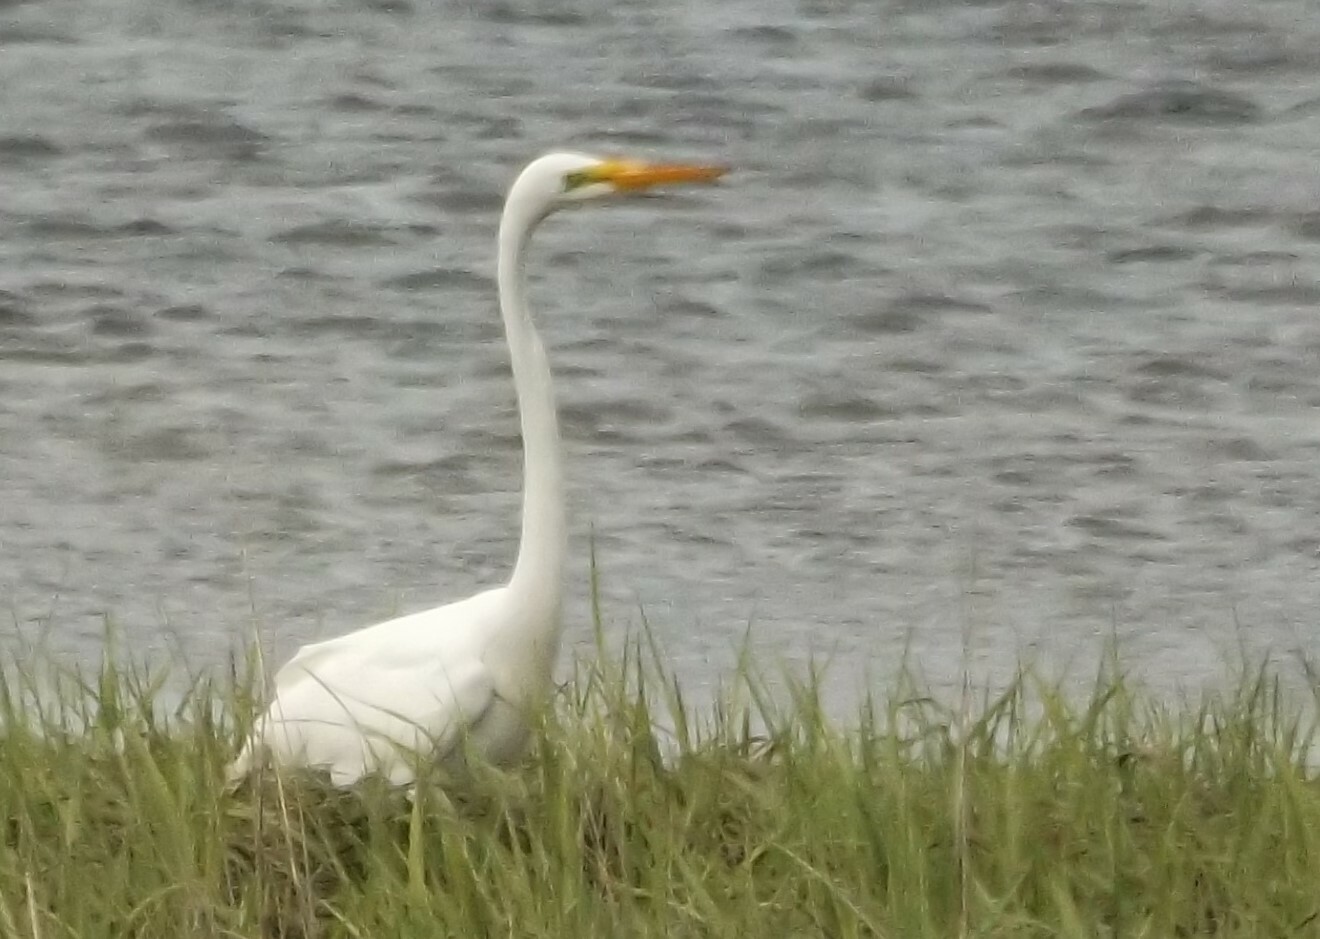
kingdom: Animalia
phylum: Chordata
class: Aves
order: Pelecaniformes
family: Ardeidae
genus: Ardea
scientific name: Ardea alba
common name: Great egret
